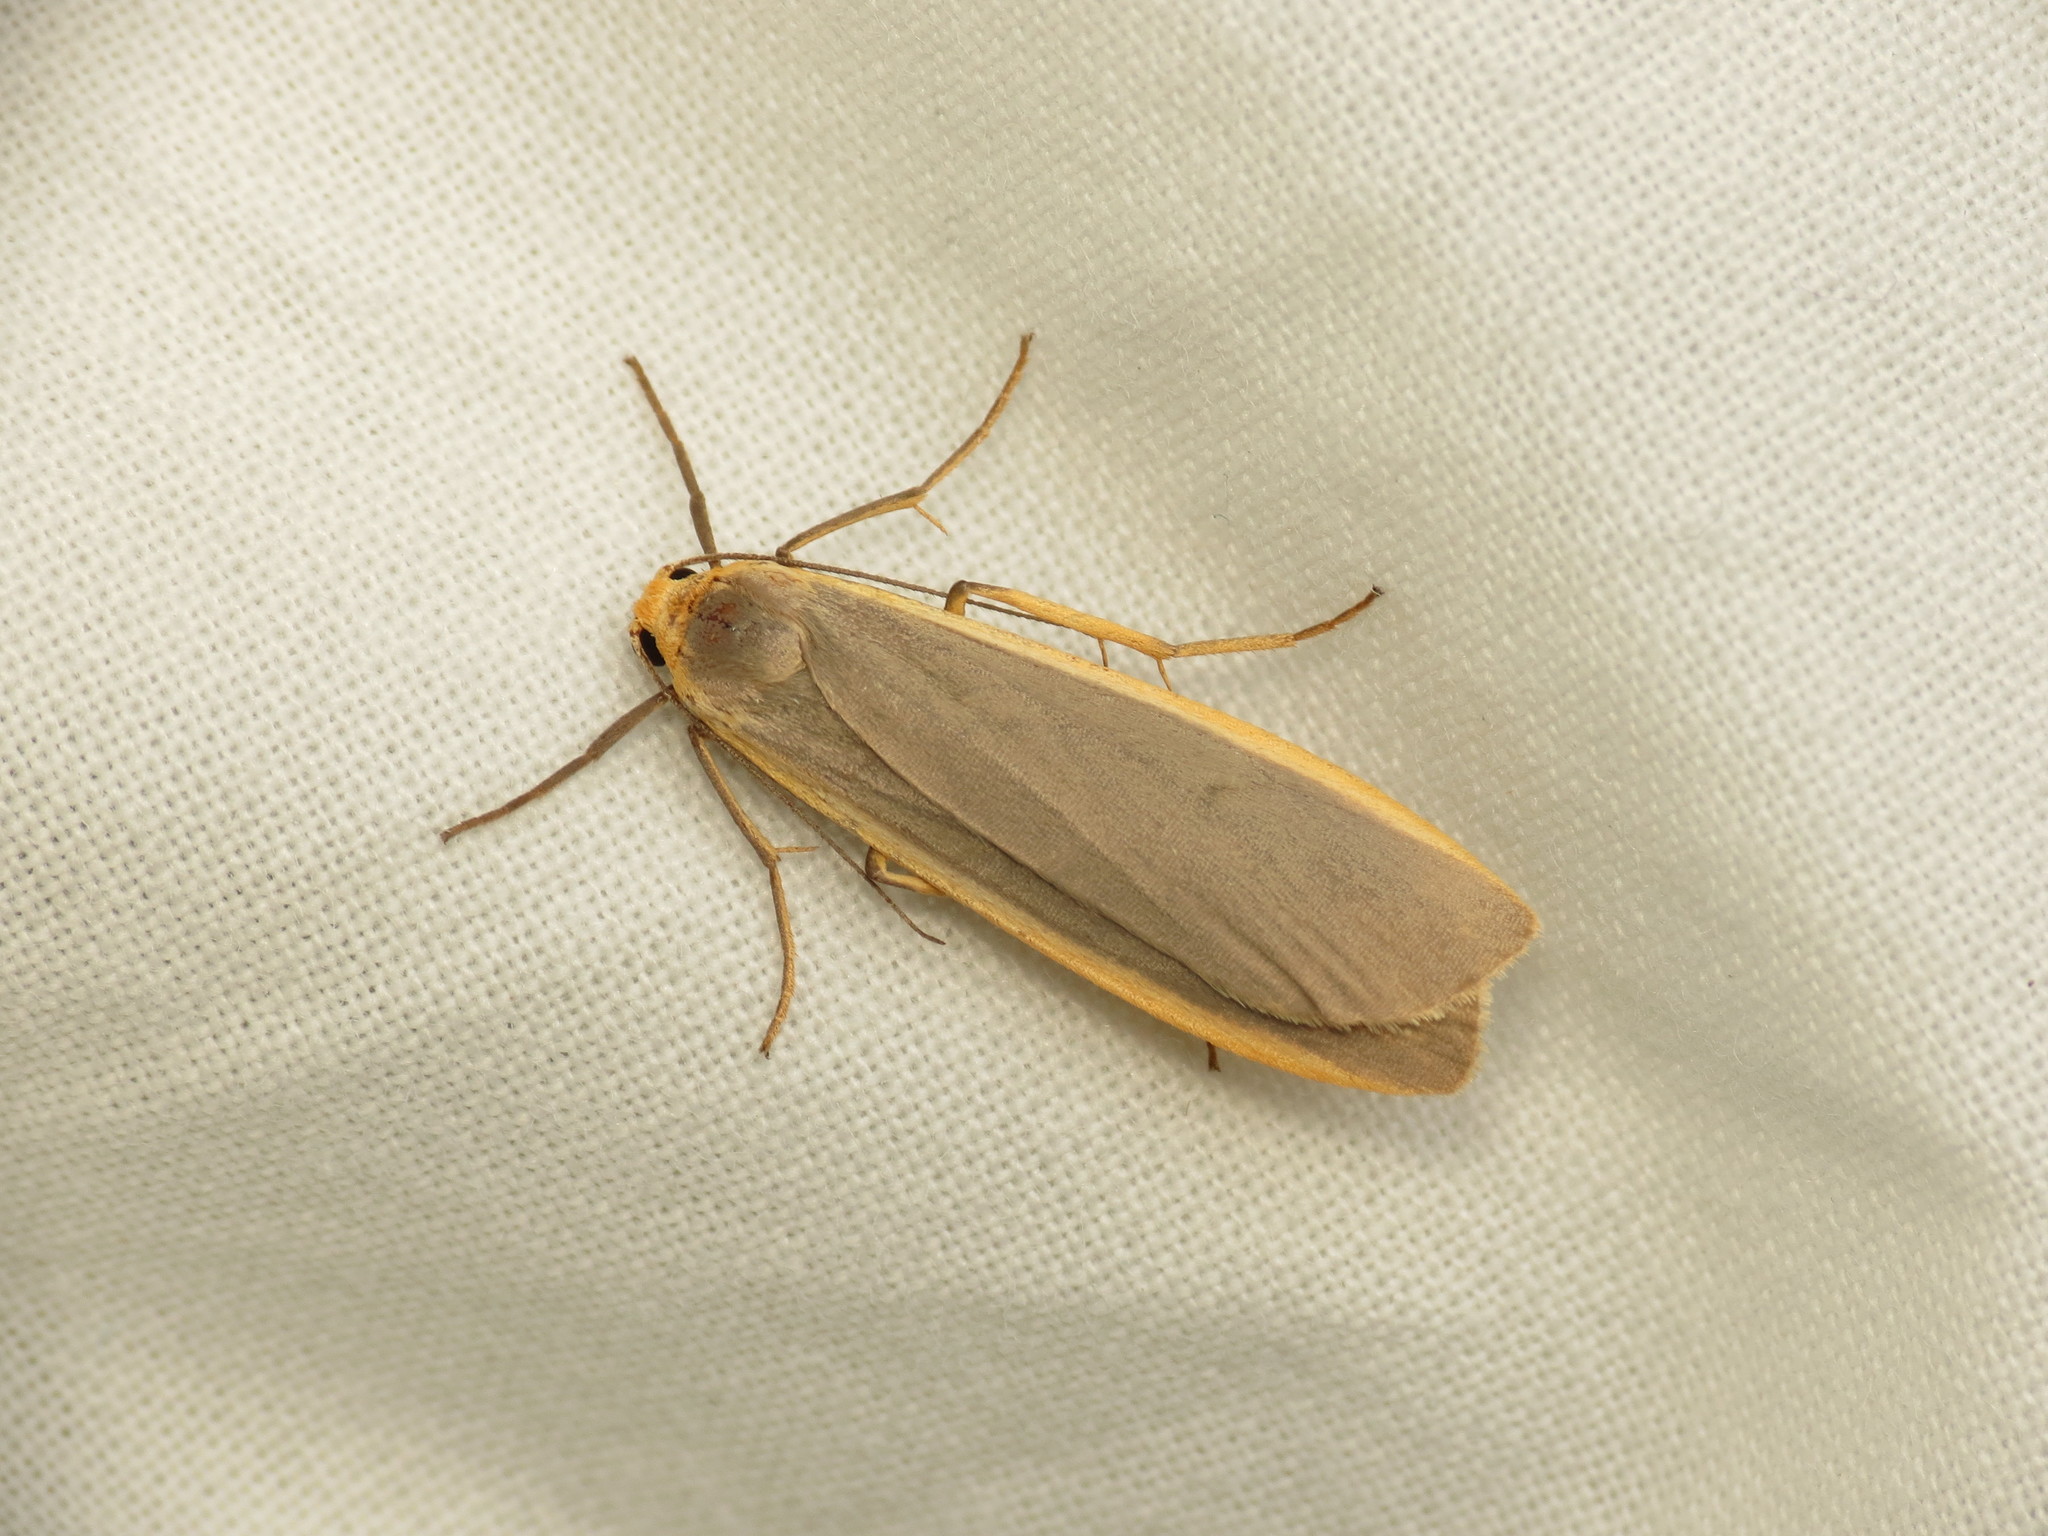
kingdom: Animalia
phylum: Arthropoda
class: Insecta
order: Lepidoptera
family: Erebidae
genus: Nyea
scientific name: Nyea lurideola
